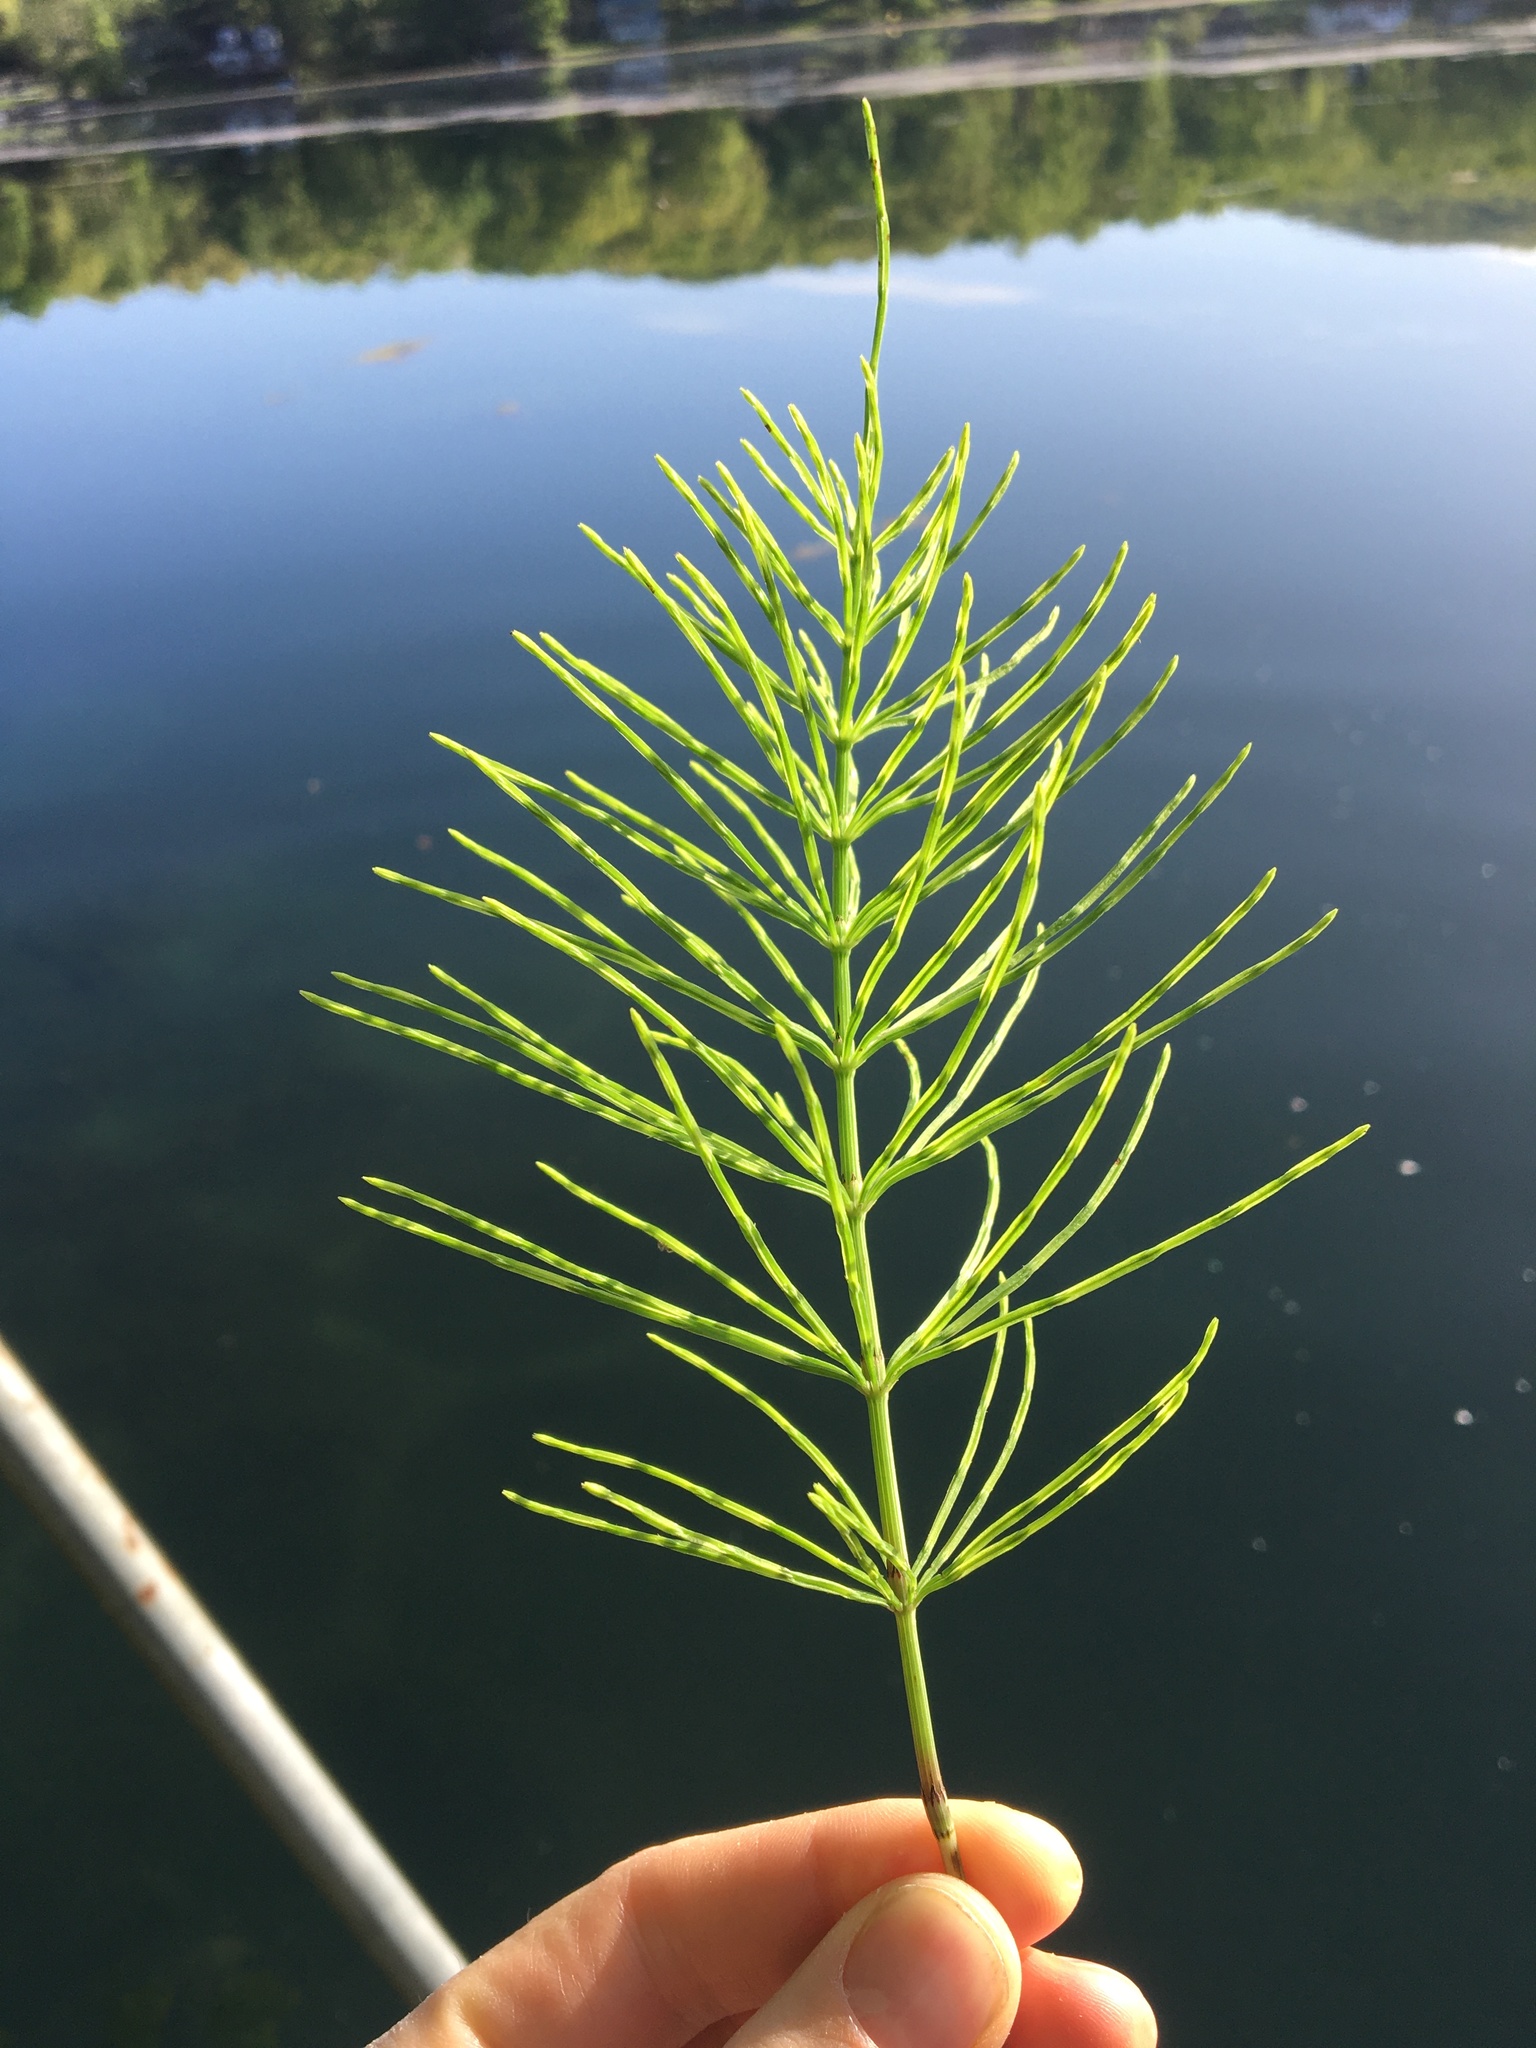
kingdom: Plantae
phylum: Tracheophyta
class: Polypodiopsida
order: Equisetales
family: Equisetaceae
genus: Equisetum
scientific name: Equisetum arvense
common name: Field horsetail
